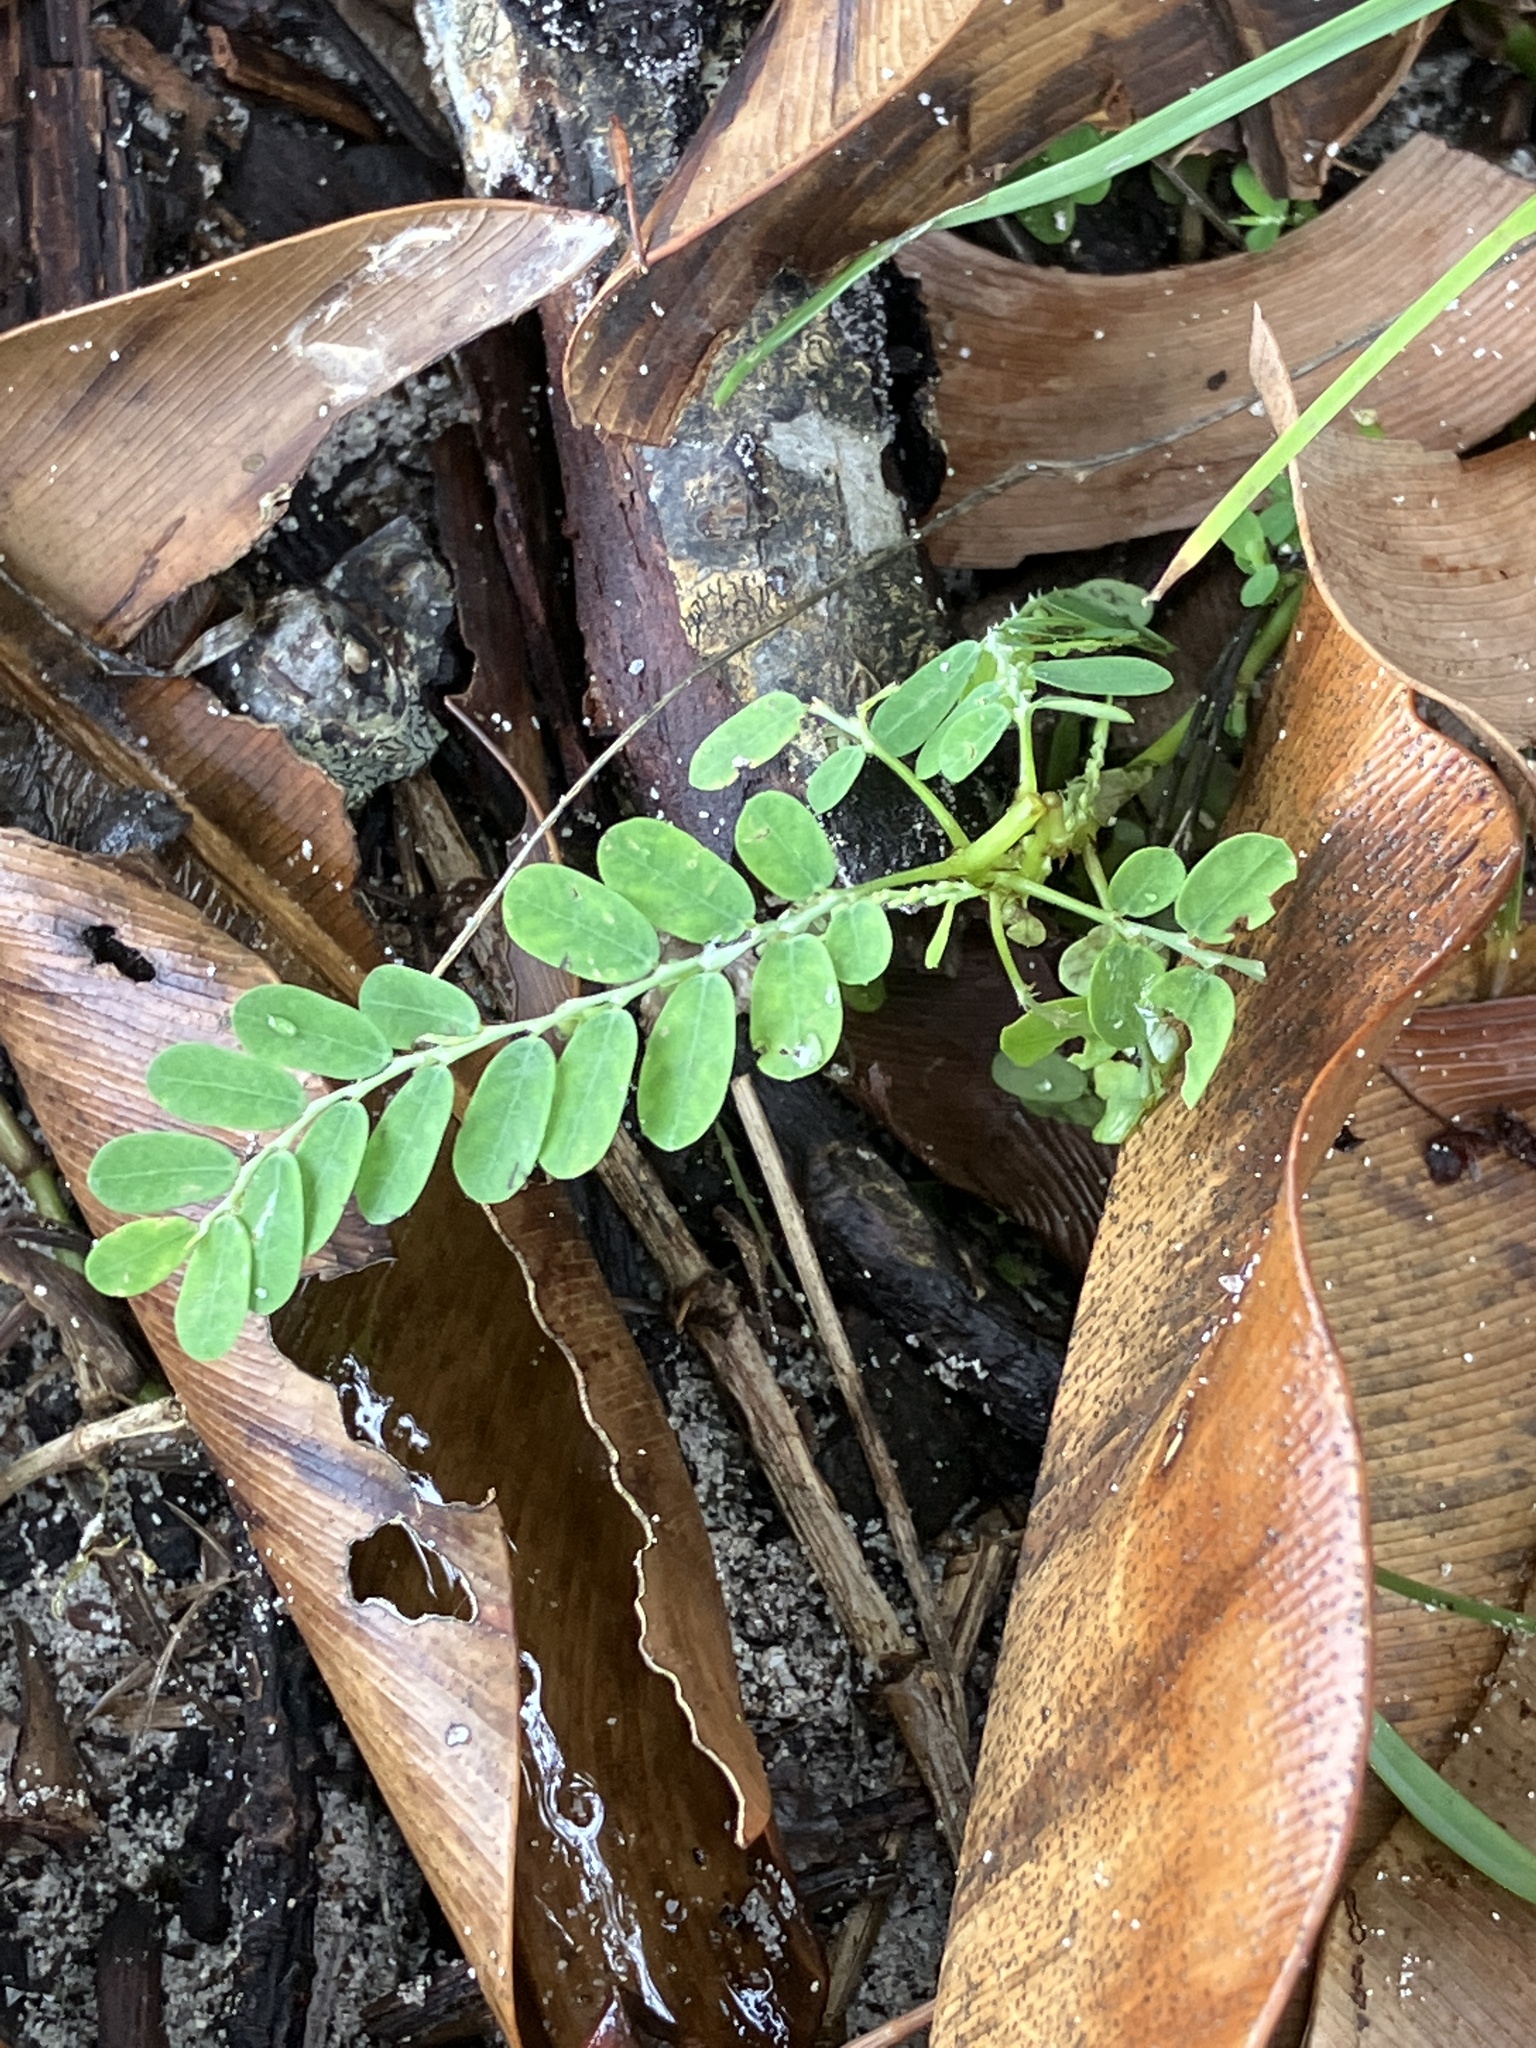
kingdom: Plantae
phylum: Tracheophyta
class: Magnoliopsida
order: Malpighiales
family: Phyllanthaceae
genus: Phyllanthus
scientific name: Phyllanthus amarus
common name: Carry me seed
